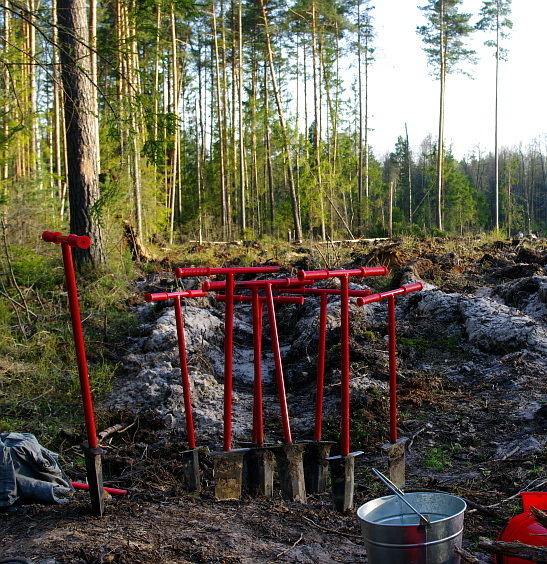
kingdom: Plantae
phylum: Tracheophyta
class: Pinopsida
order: Pinales
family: Pinaceae
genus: Pinus
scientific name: Pinus sylvestris
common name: Scots pine
